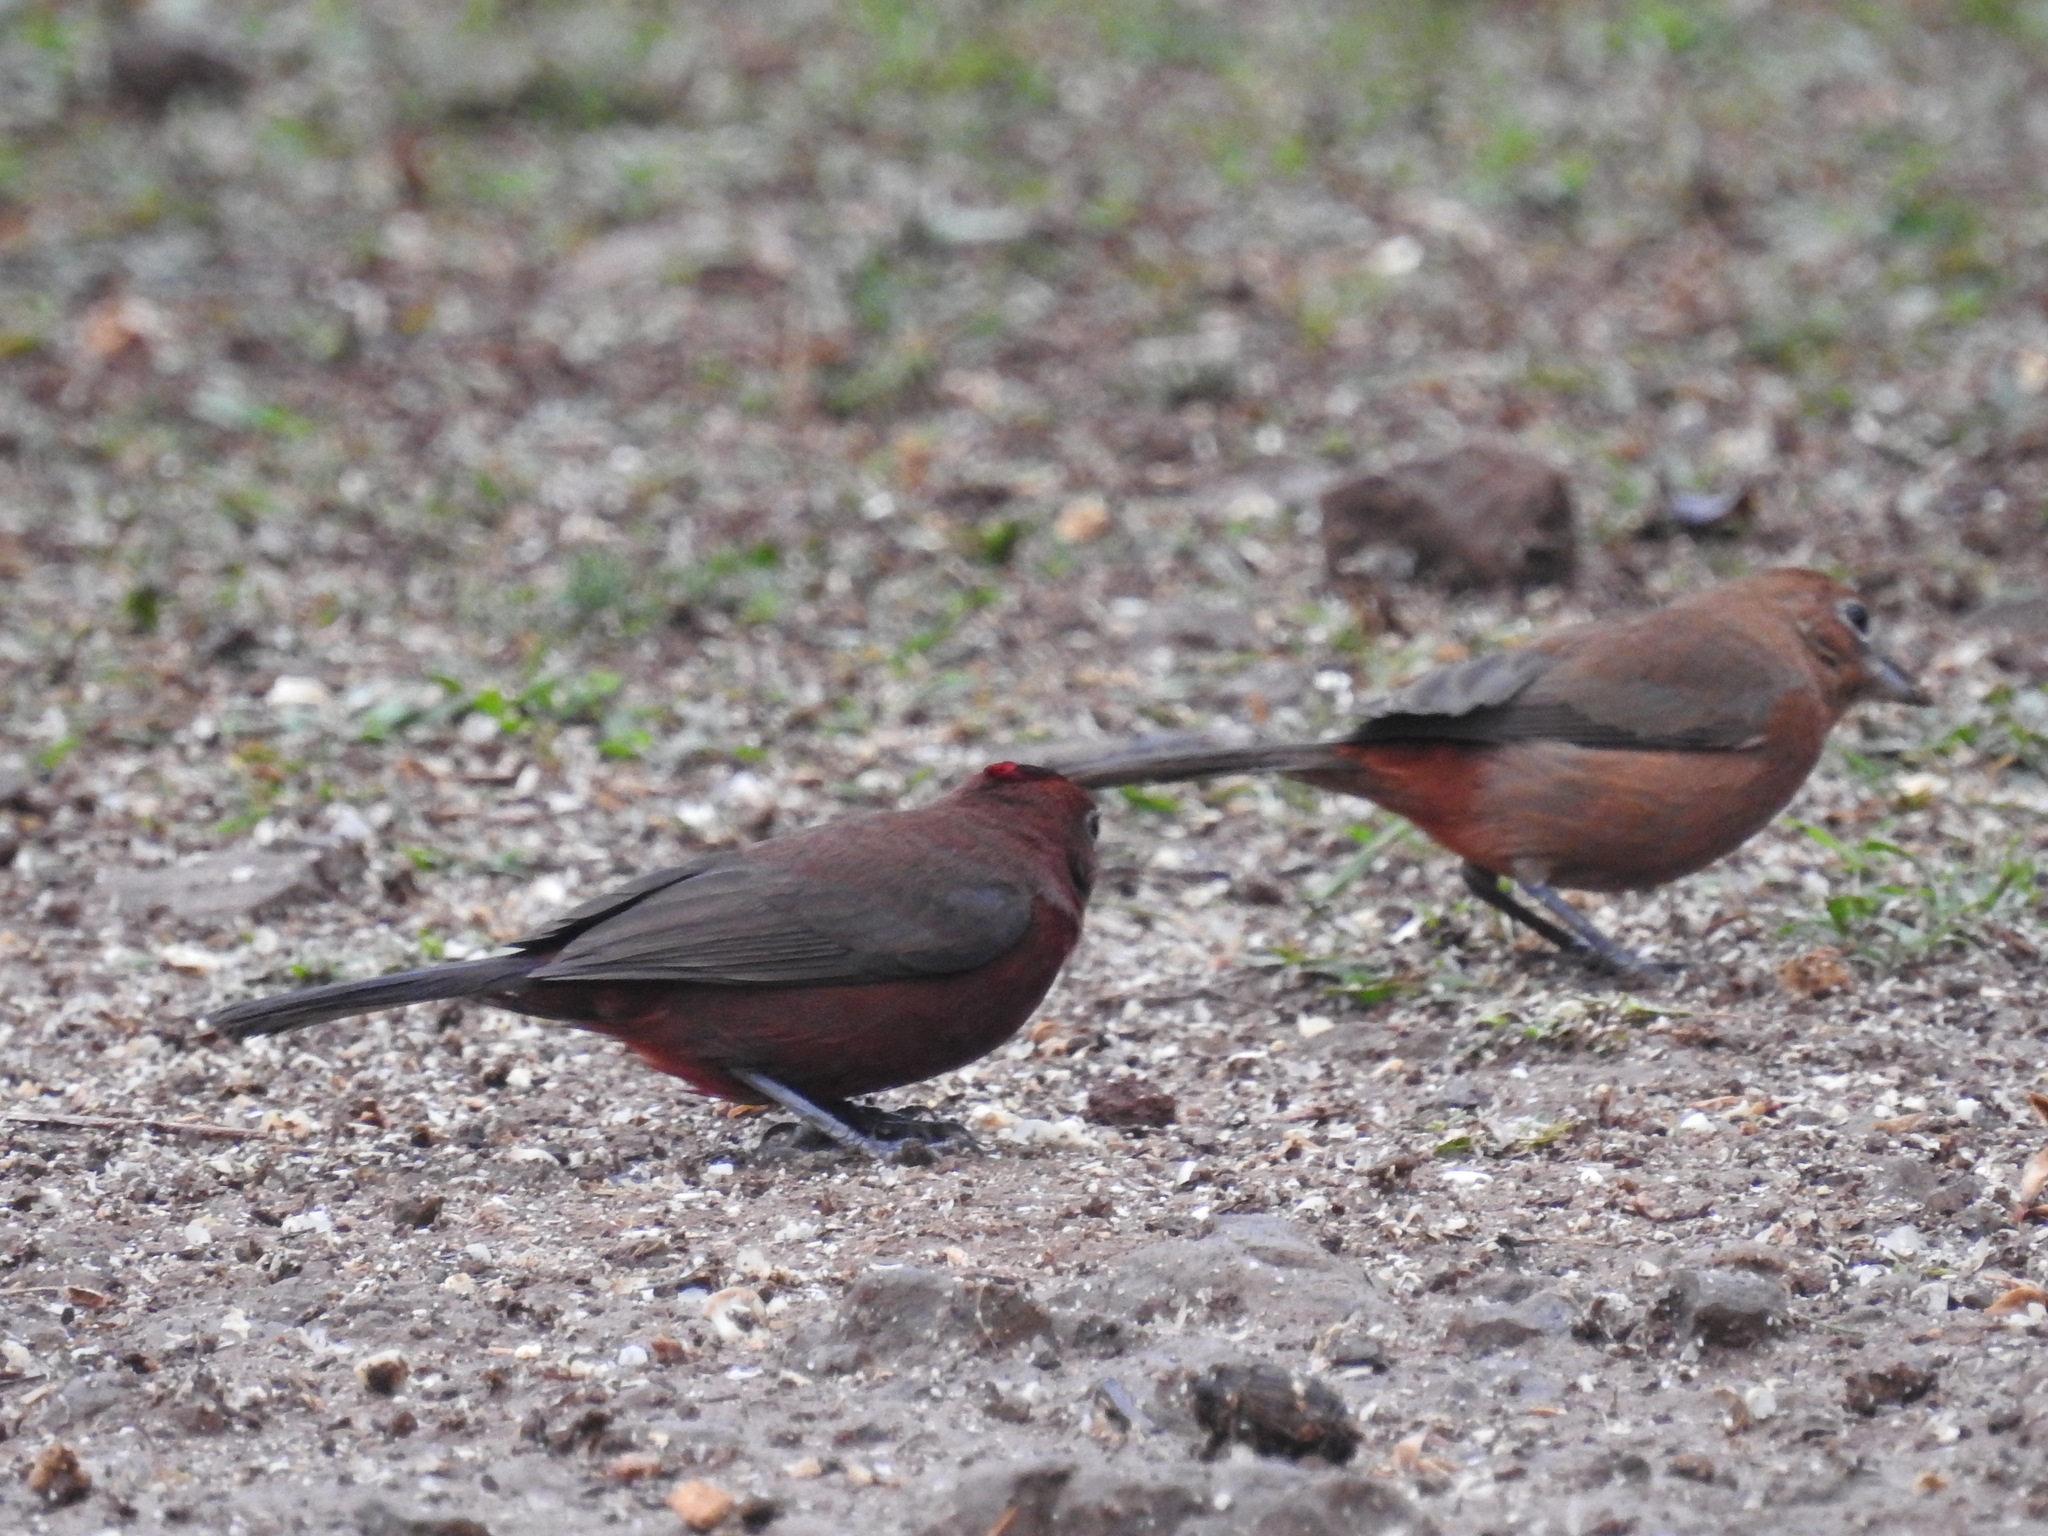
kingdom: Animalia
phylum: Chordata
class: Aves
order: Passeriformes
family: Thraupidae
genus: Coryphospingus
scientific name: Coryphospingus cucullatus
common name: Red pileated finch
